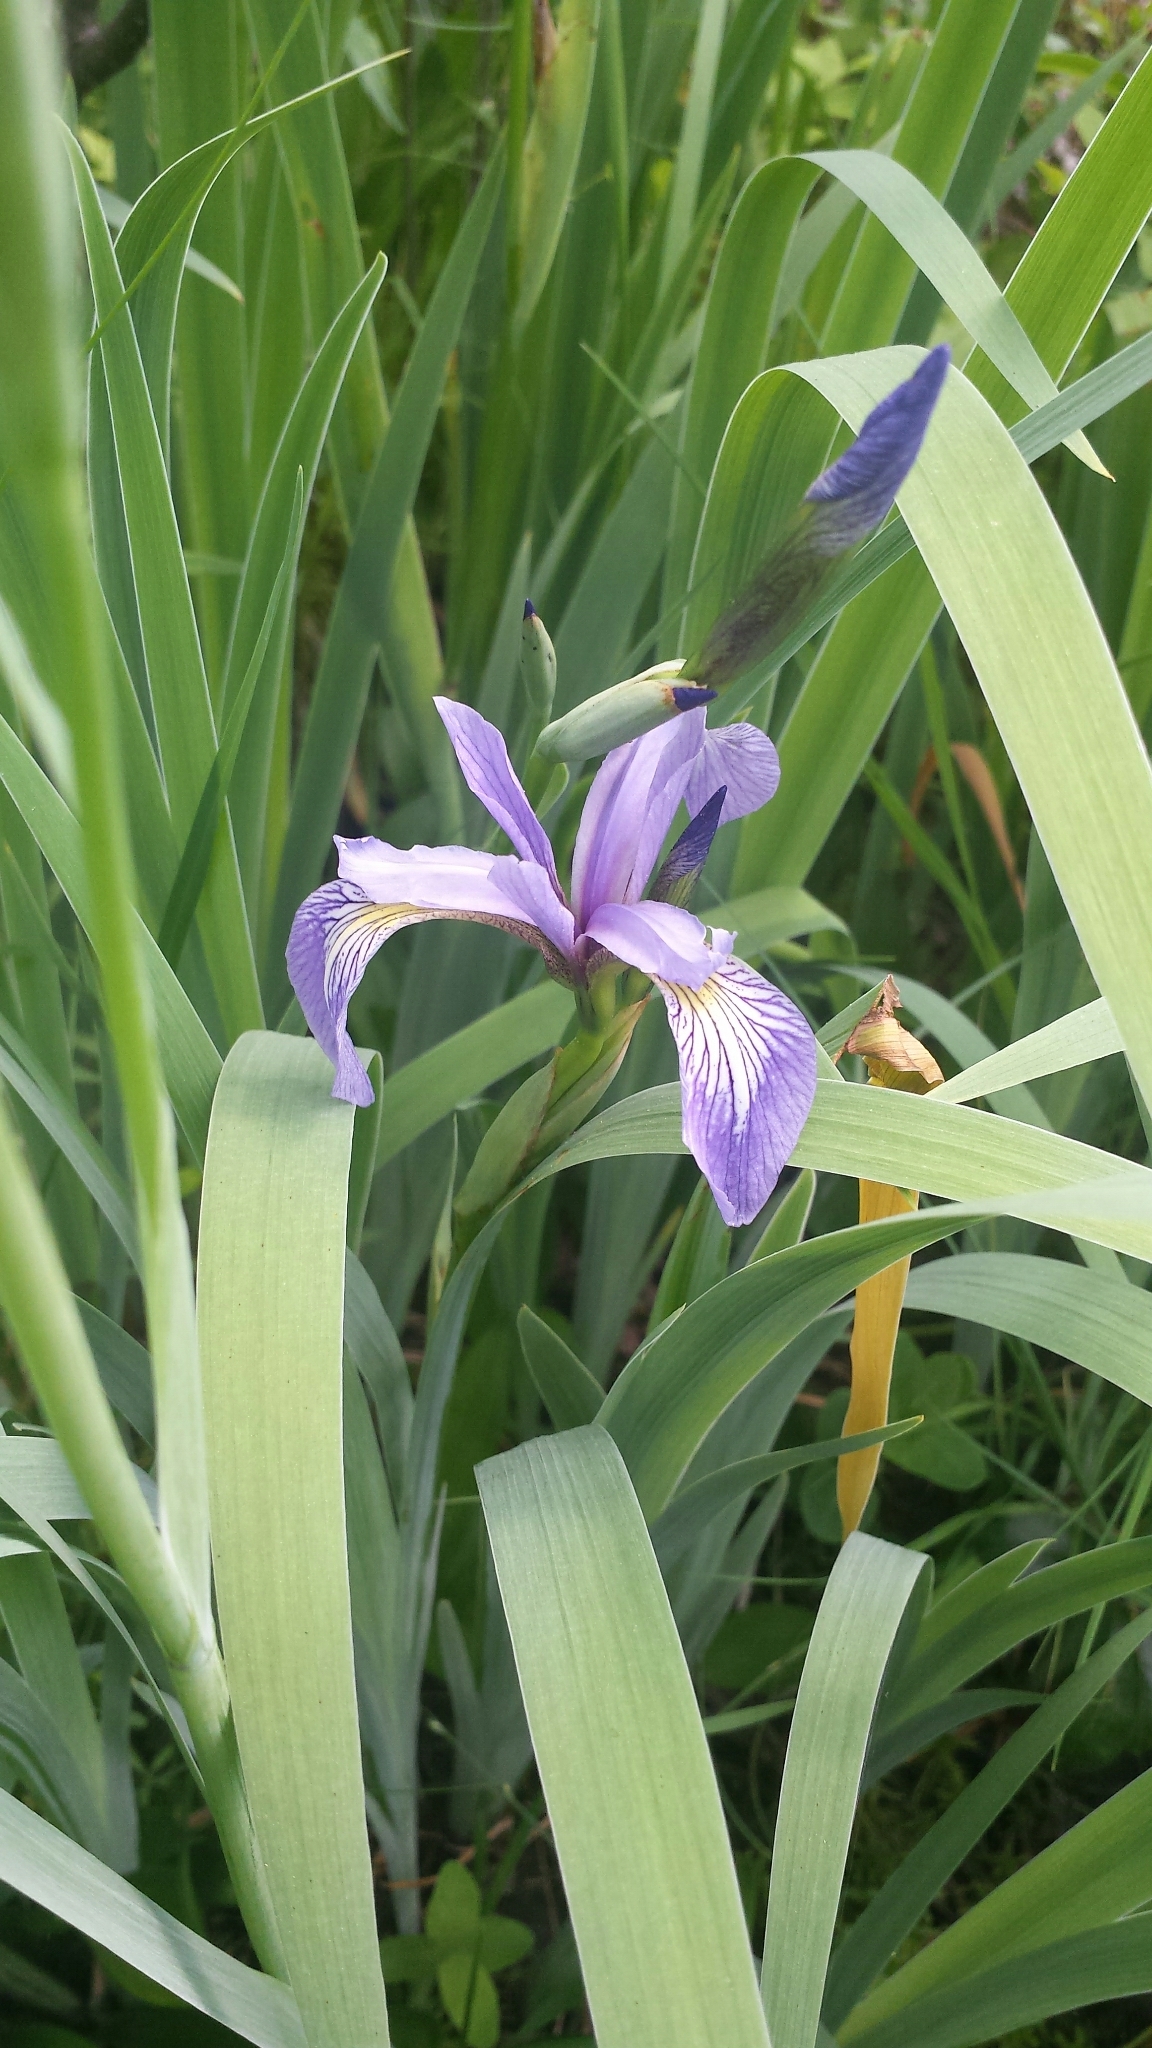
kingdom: Plantae
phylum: Tracheophyta
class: Liliopsida
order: Asparagales
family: Iridaceae
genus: Iris
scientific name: Iris versicolor
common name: Purple iris
